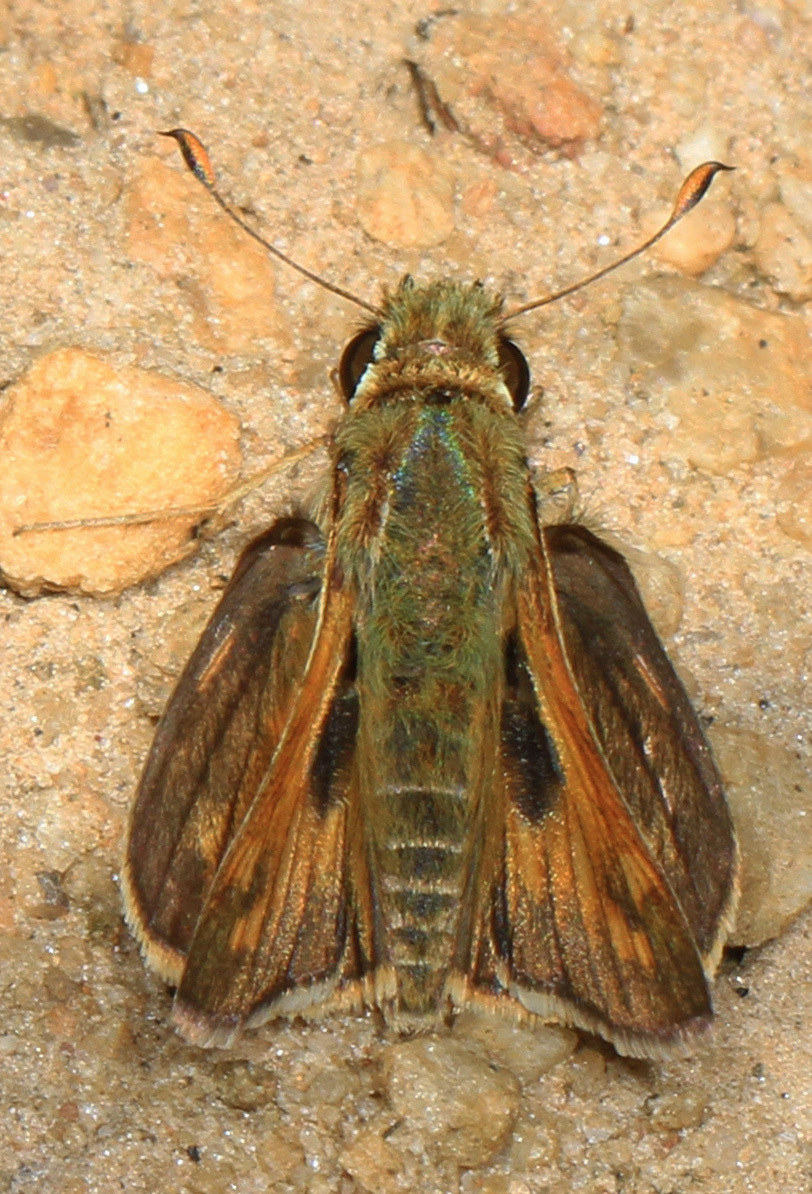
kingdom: Animalia
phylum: Arthropoda
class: Insecta
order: Lepidoptera
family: Hesperiidae
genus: Atalopedes
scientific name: Atalopedes
